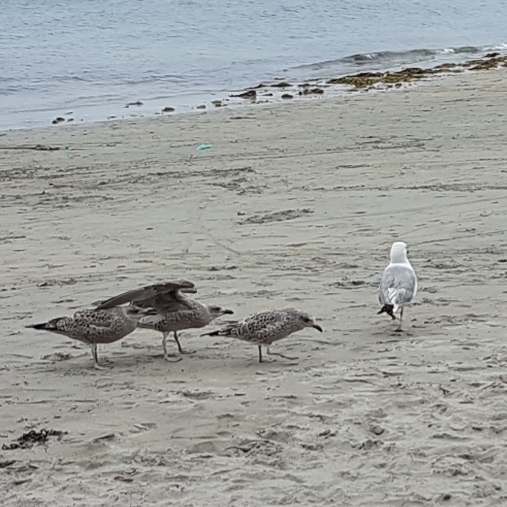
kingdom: Animalia
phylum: Chordata
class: Aves
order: Charadriiformes
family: Laridae
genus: Larus
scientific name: Larus argentatus
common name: Herring gull
